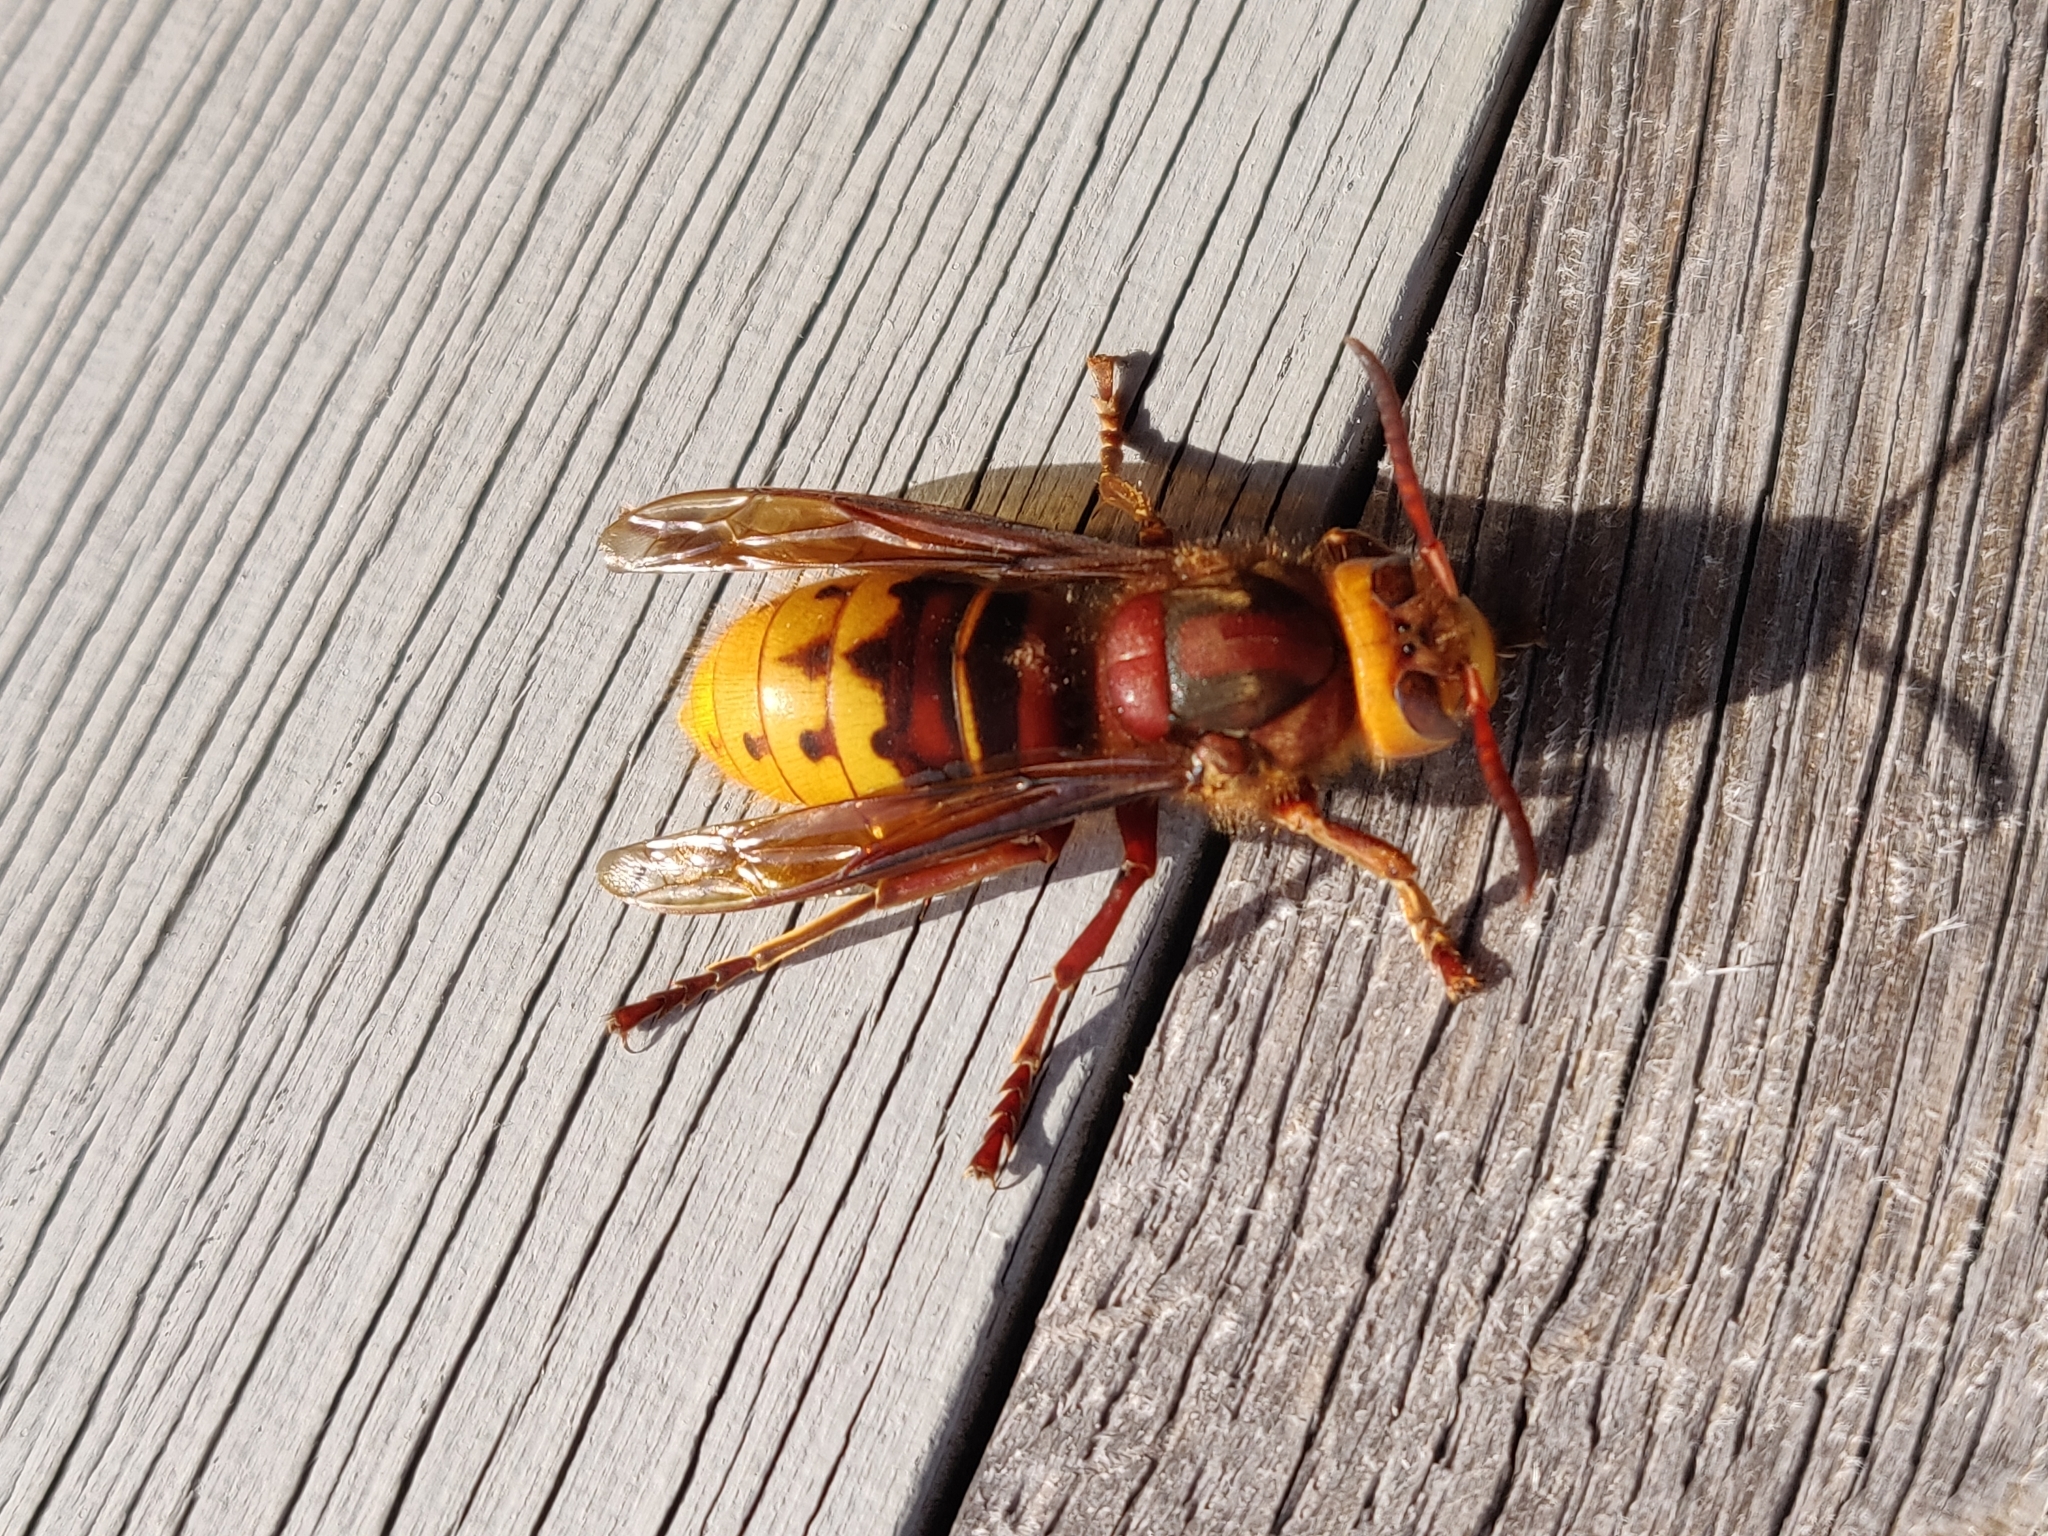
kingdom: Animalia
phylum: Arthropoda
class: Insecta
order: Hymenoptera
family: Vespidae
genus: Vespa
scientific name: Vespa crabro
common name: Hornet
